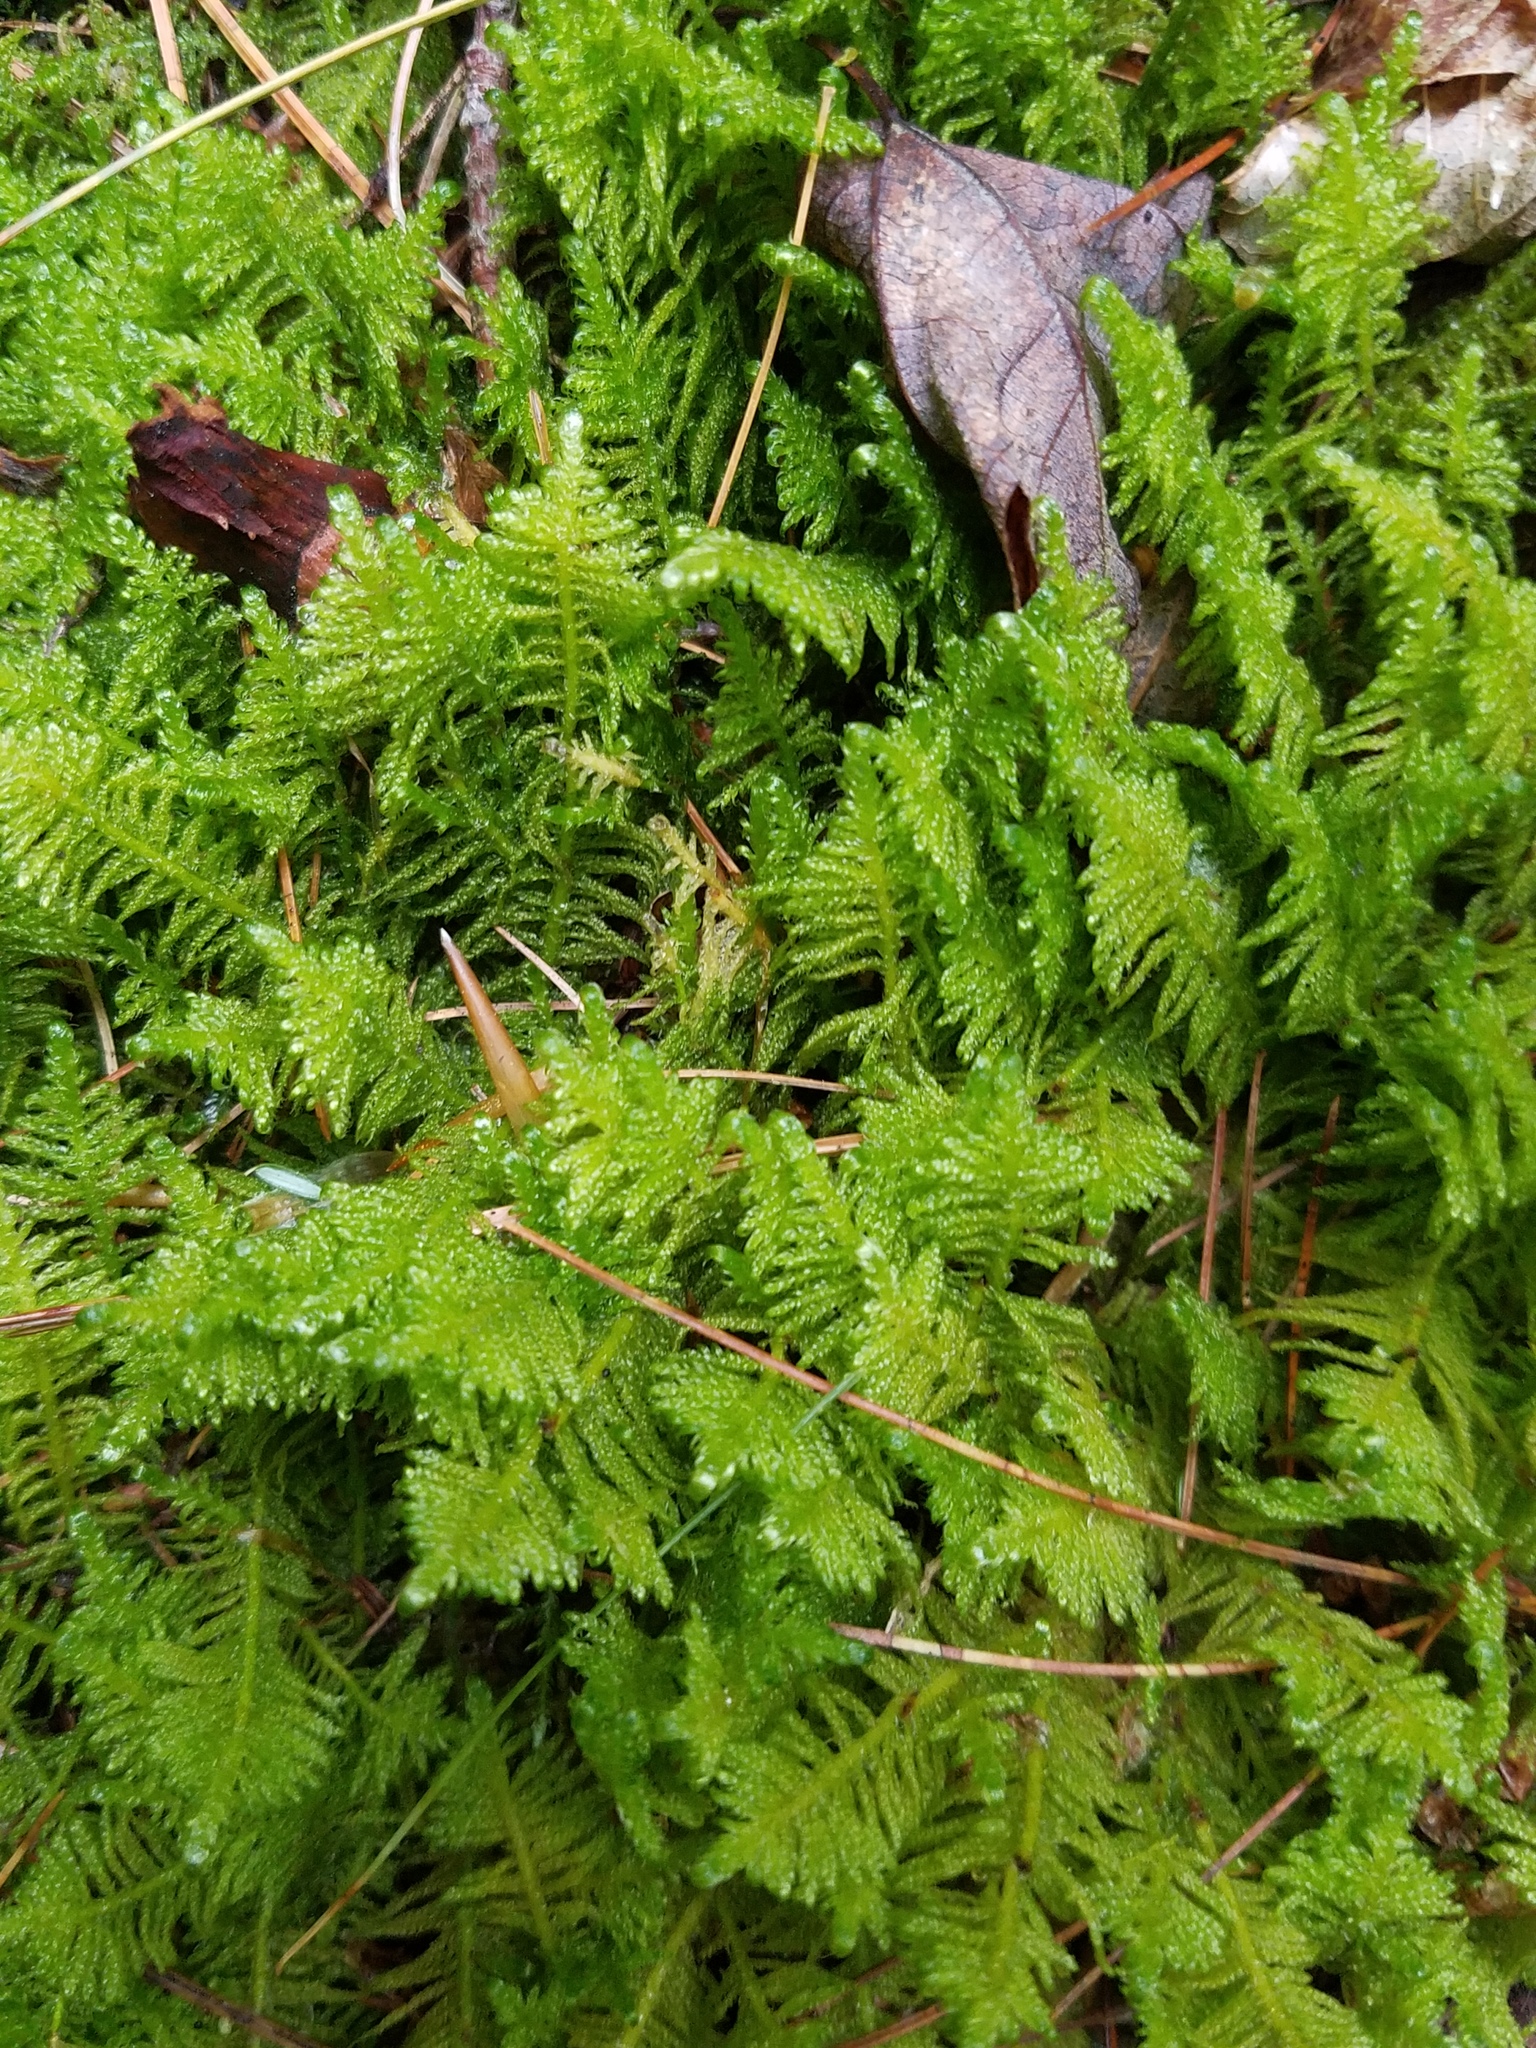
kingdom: Plantae
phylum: Bryophyta
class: Bryopsida
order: Hypnales
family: Pylaisiaceae
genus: Ptilium
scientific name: Ptilium crista-castrensis
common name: Knight's plume moss
